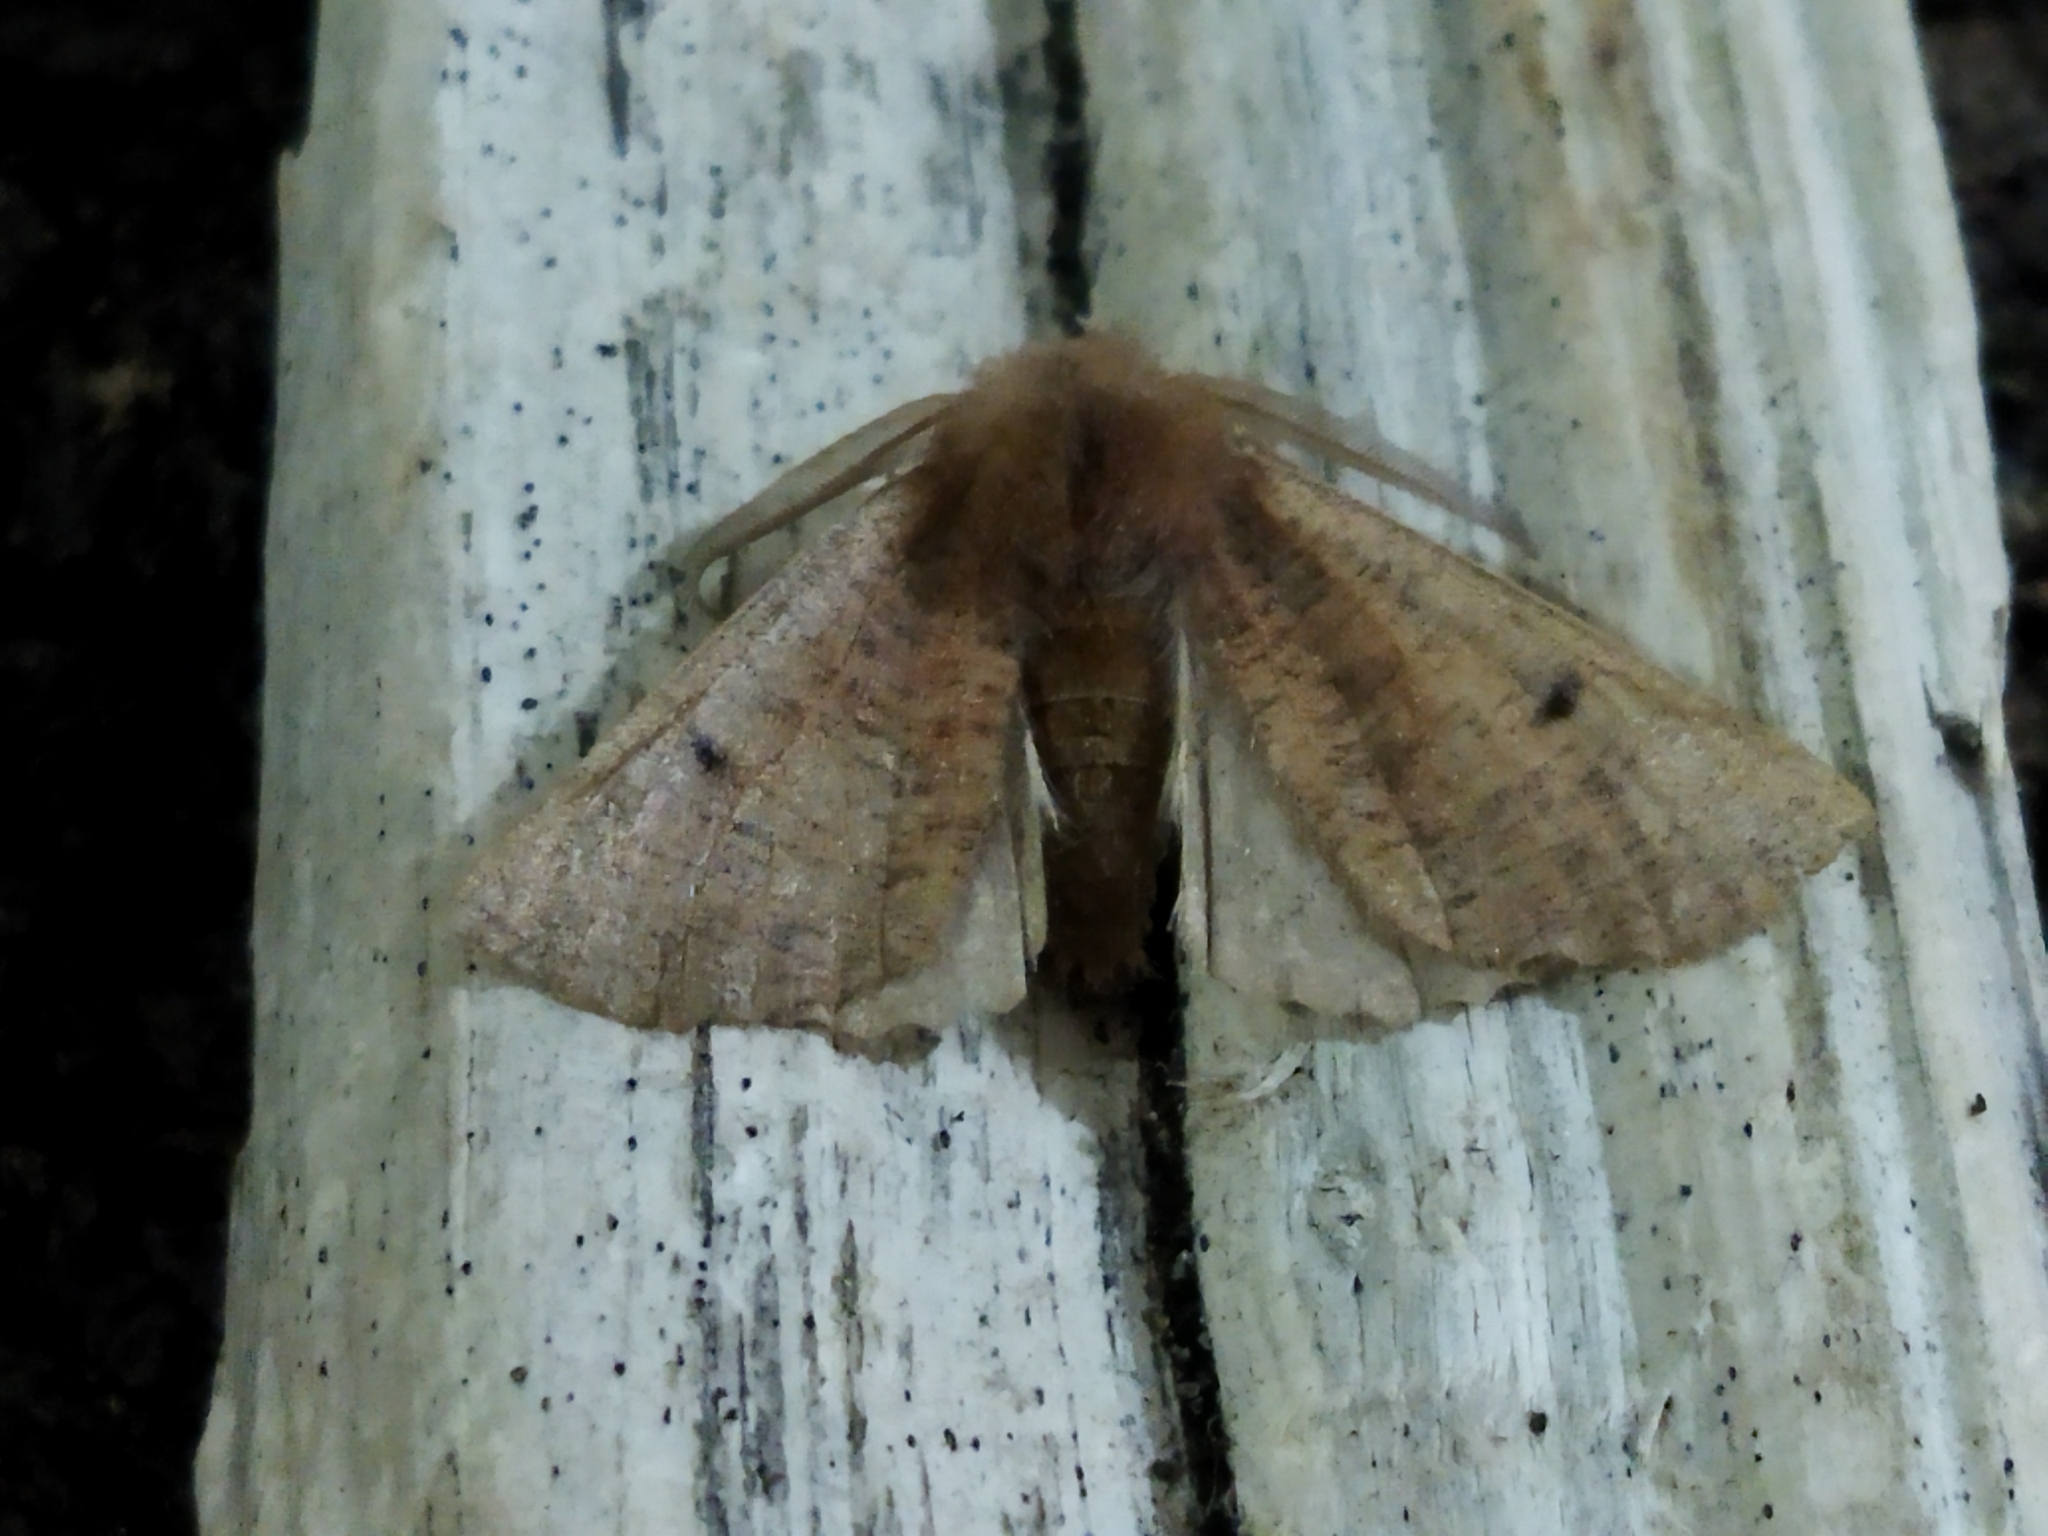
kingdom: Animalia
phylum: Arthropoda
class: Insecta
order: Lepidoptera
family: Geometridae
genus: Dasycorsa
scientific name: Dasycorsa modesta
